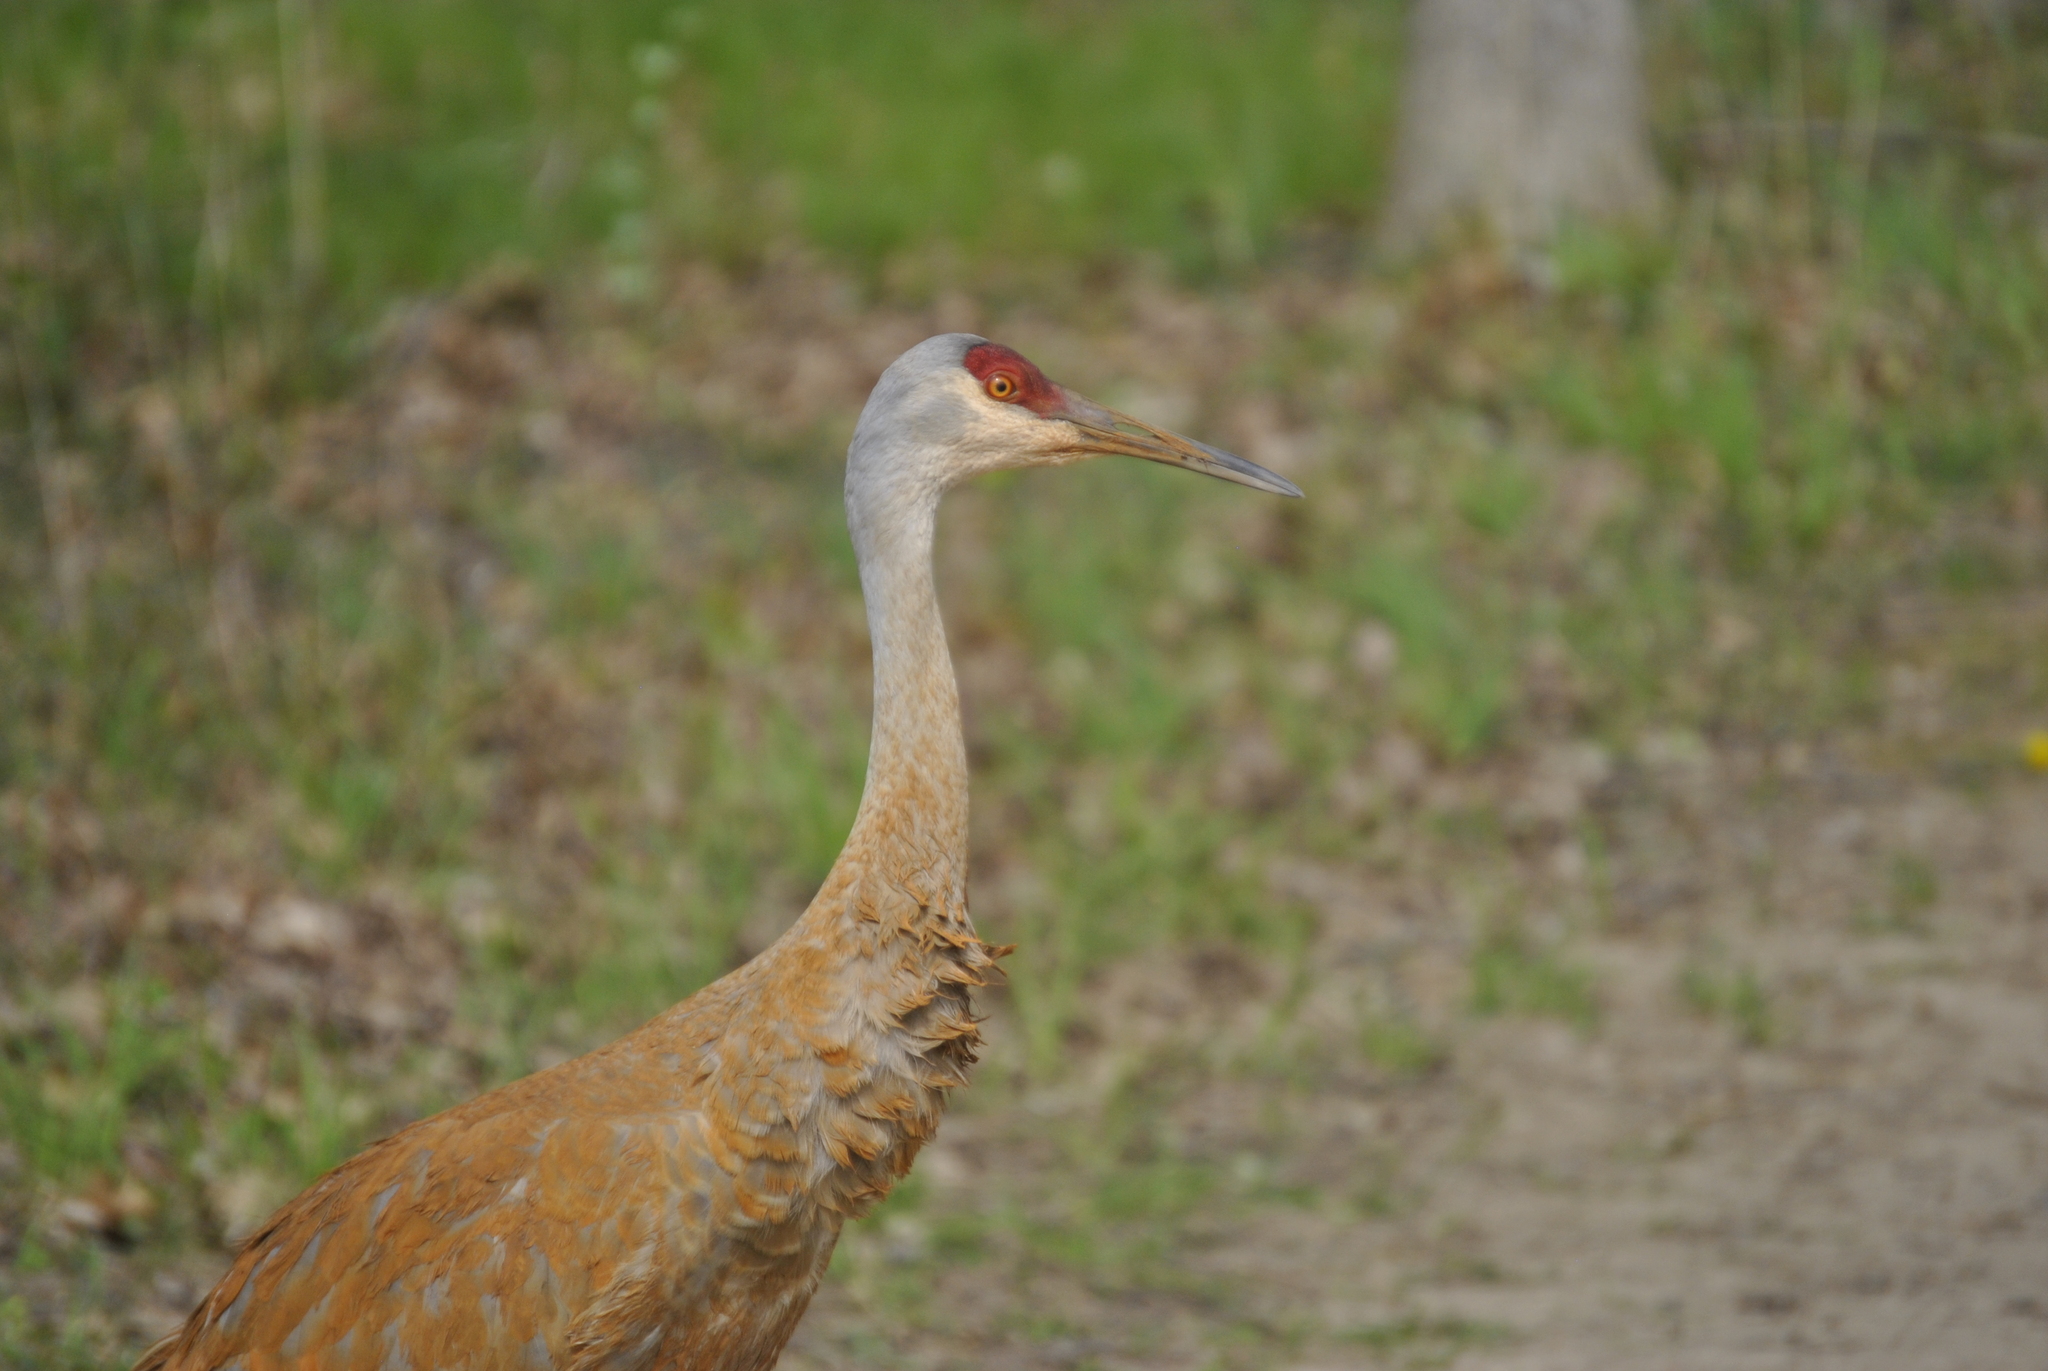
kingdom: Animalia
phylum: Chordata
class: Aves
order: Gruiformes
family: Gruidae
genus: Grus
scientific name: Grus canadensis
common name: Sandhill crane
